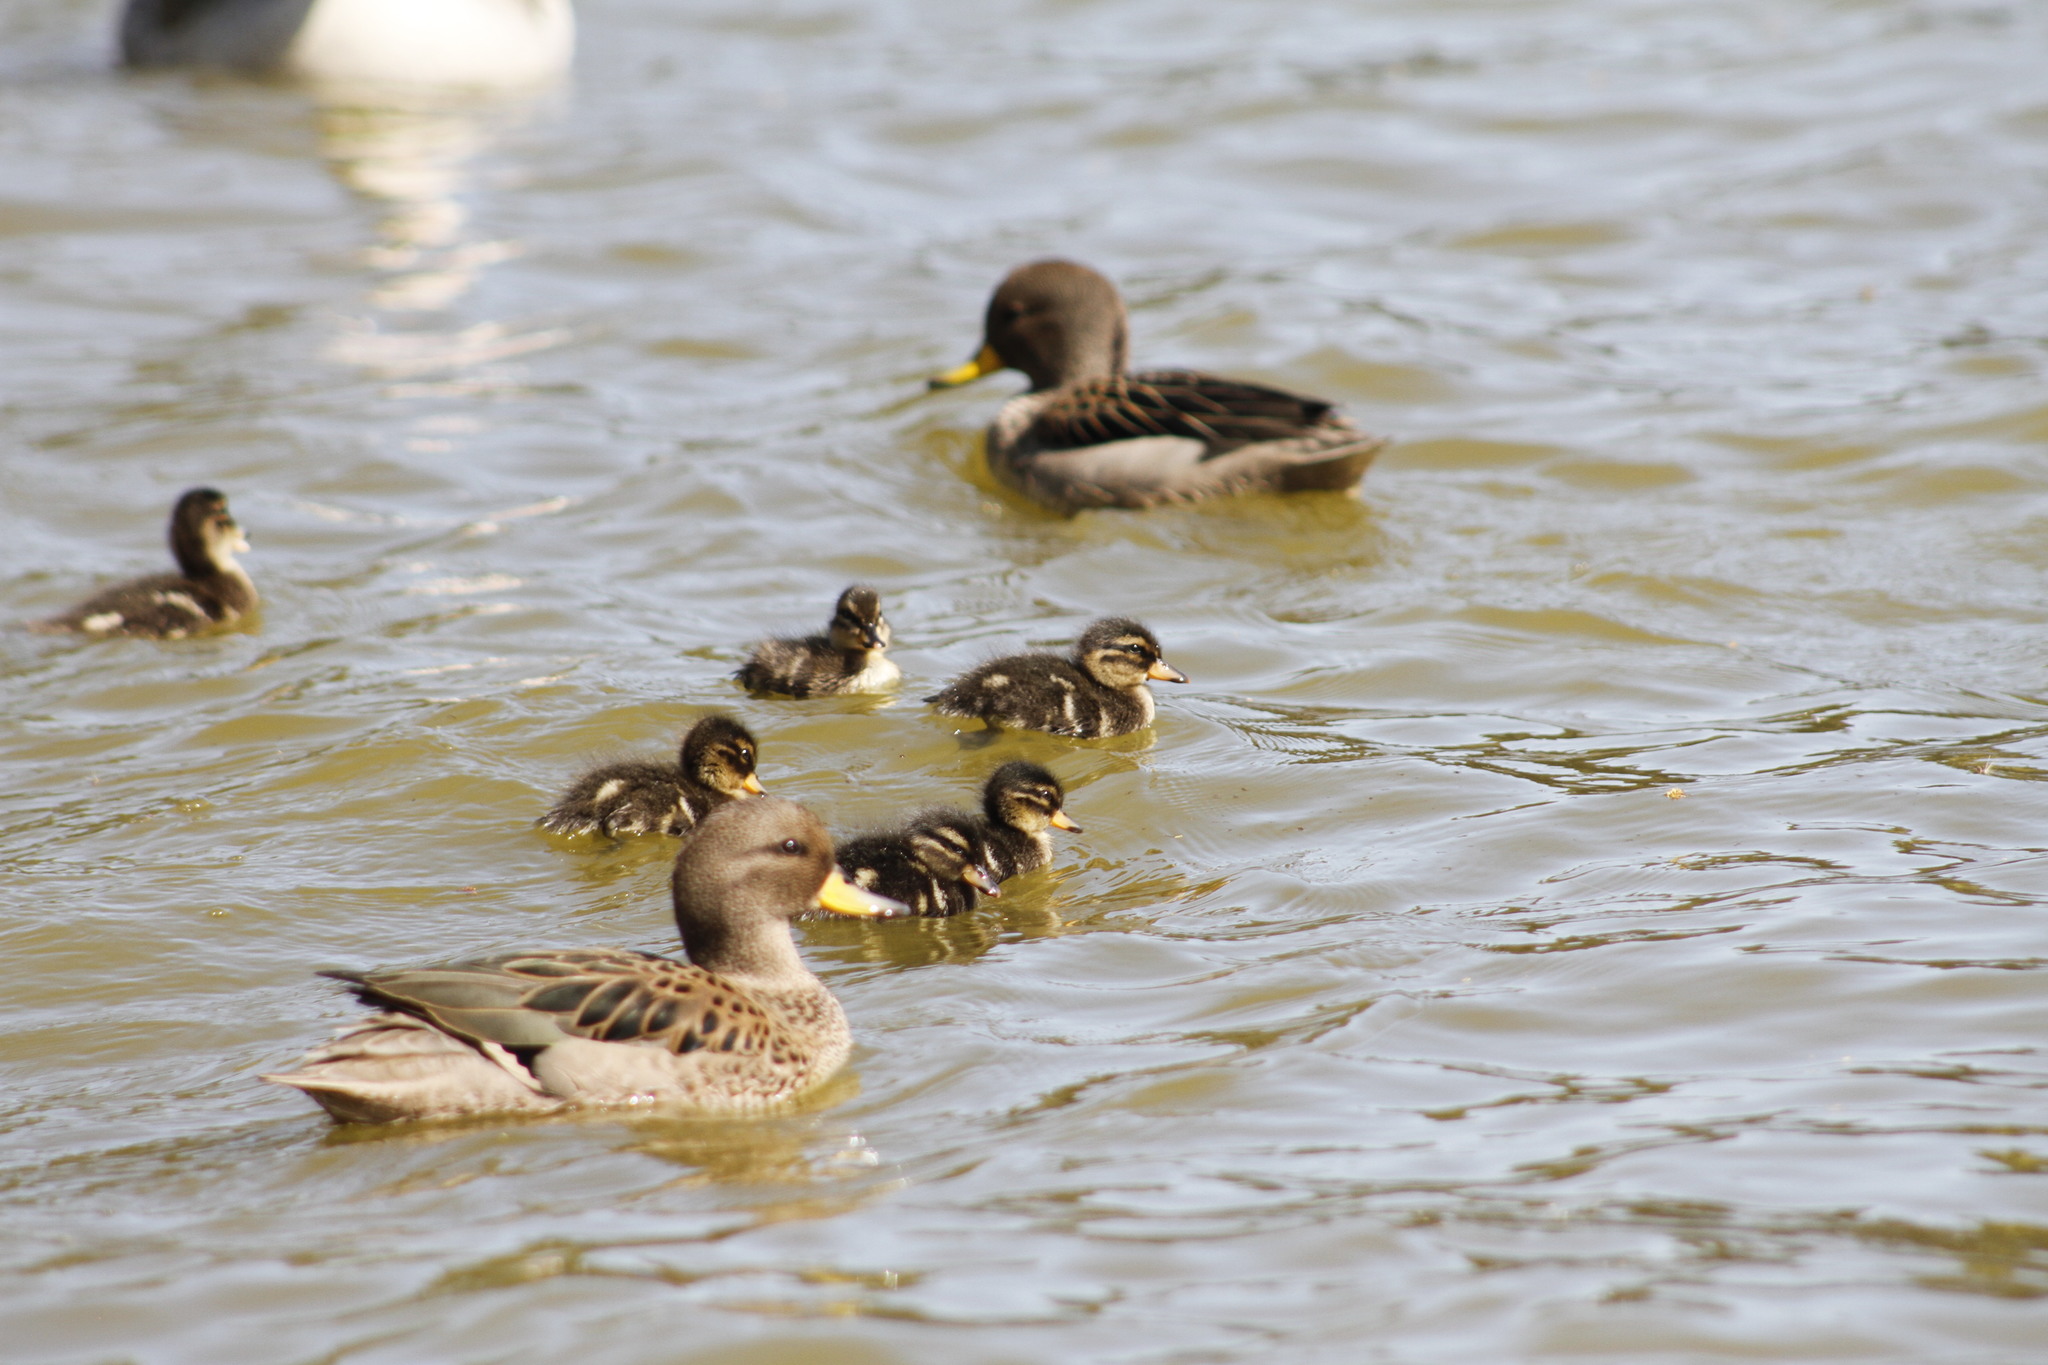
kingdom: Animalia
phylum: Chordata
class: Aves
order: Anseriformes
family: Anatidae
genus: Anas
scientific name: Anas flavirostris
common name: Yellow-billed teal
